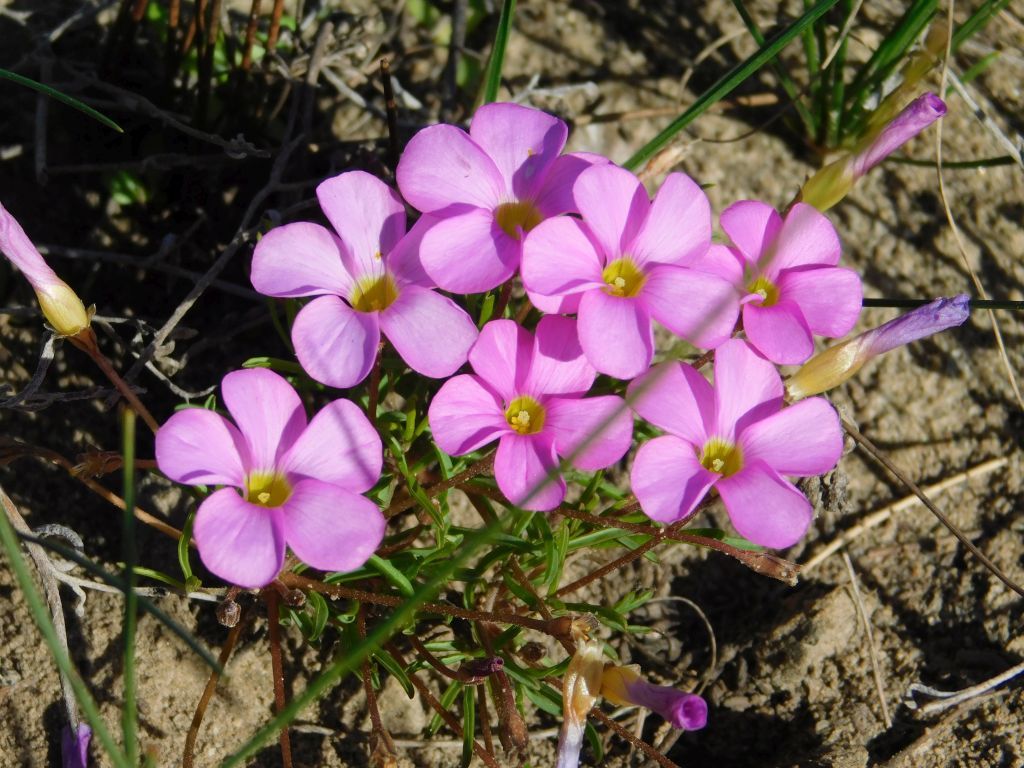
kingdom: Plantae
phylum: Tracheophyta
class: Magnoliopsida
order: Oxalidales
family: Oxalidaceae
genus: Oxalis
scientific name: Oxalis polyphylla
